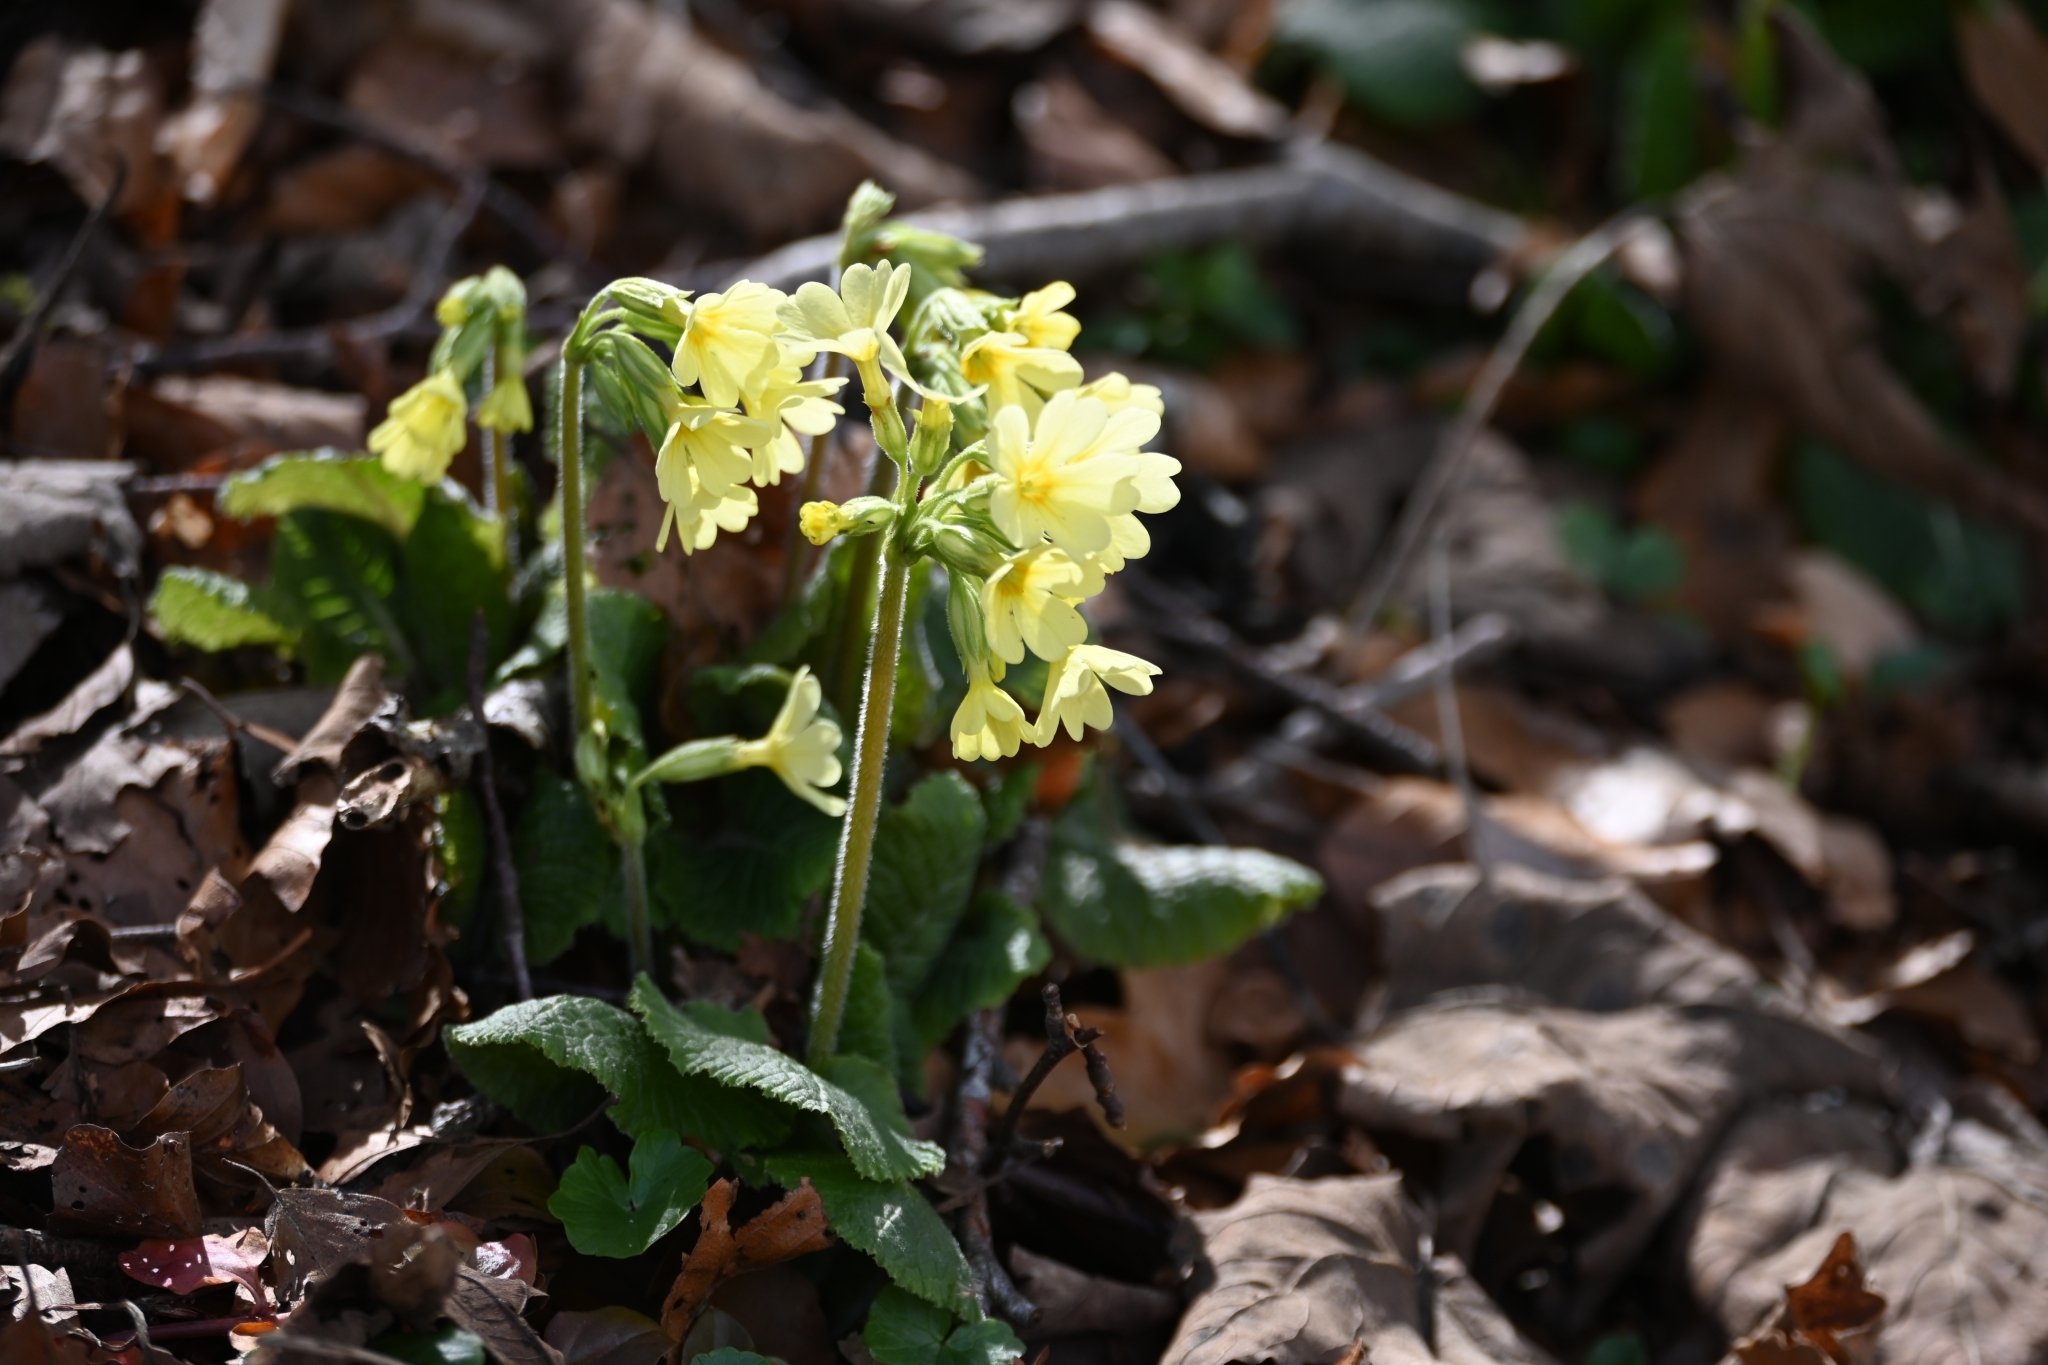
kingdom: Plantae
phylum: Tracheophyta
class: Magnoliopsida
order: Ericales
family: Primulaceae
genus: Primula
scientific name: Primula elatior
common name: Oxlip
